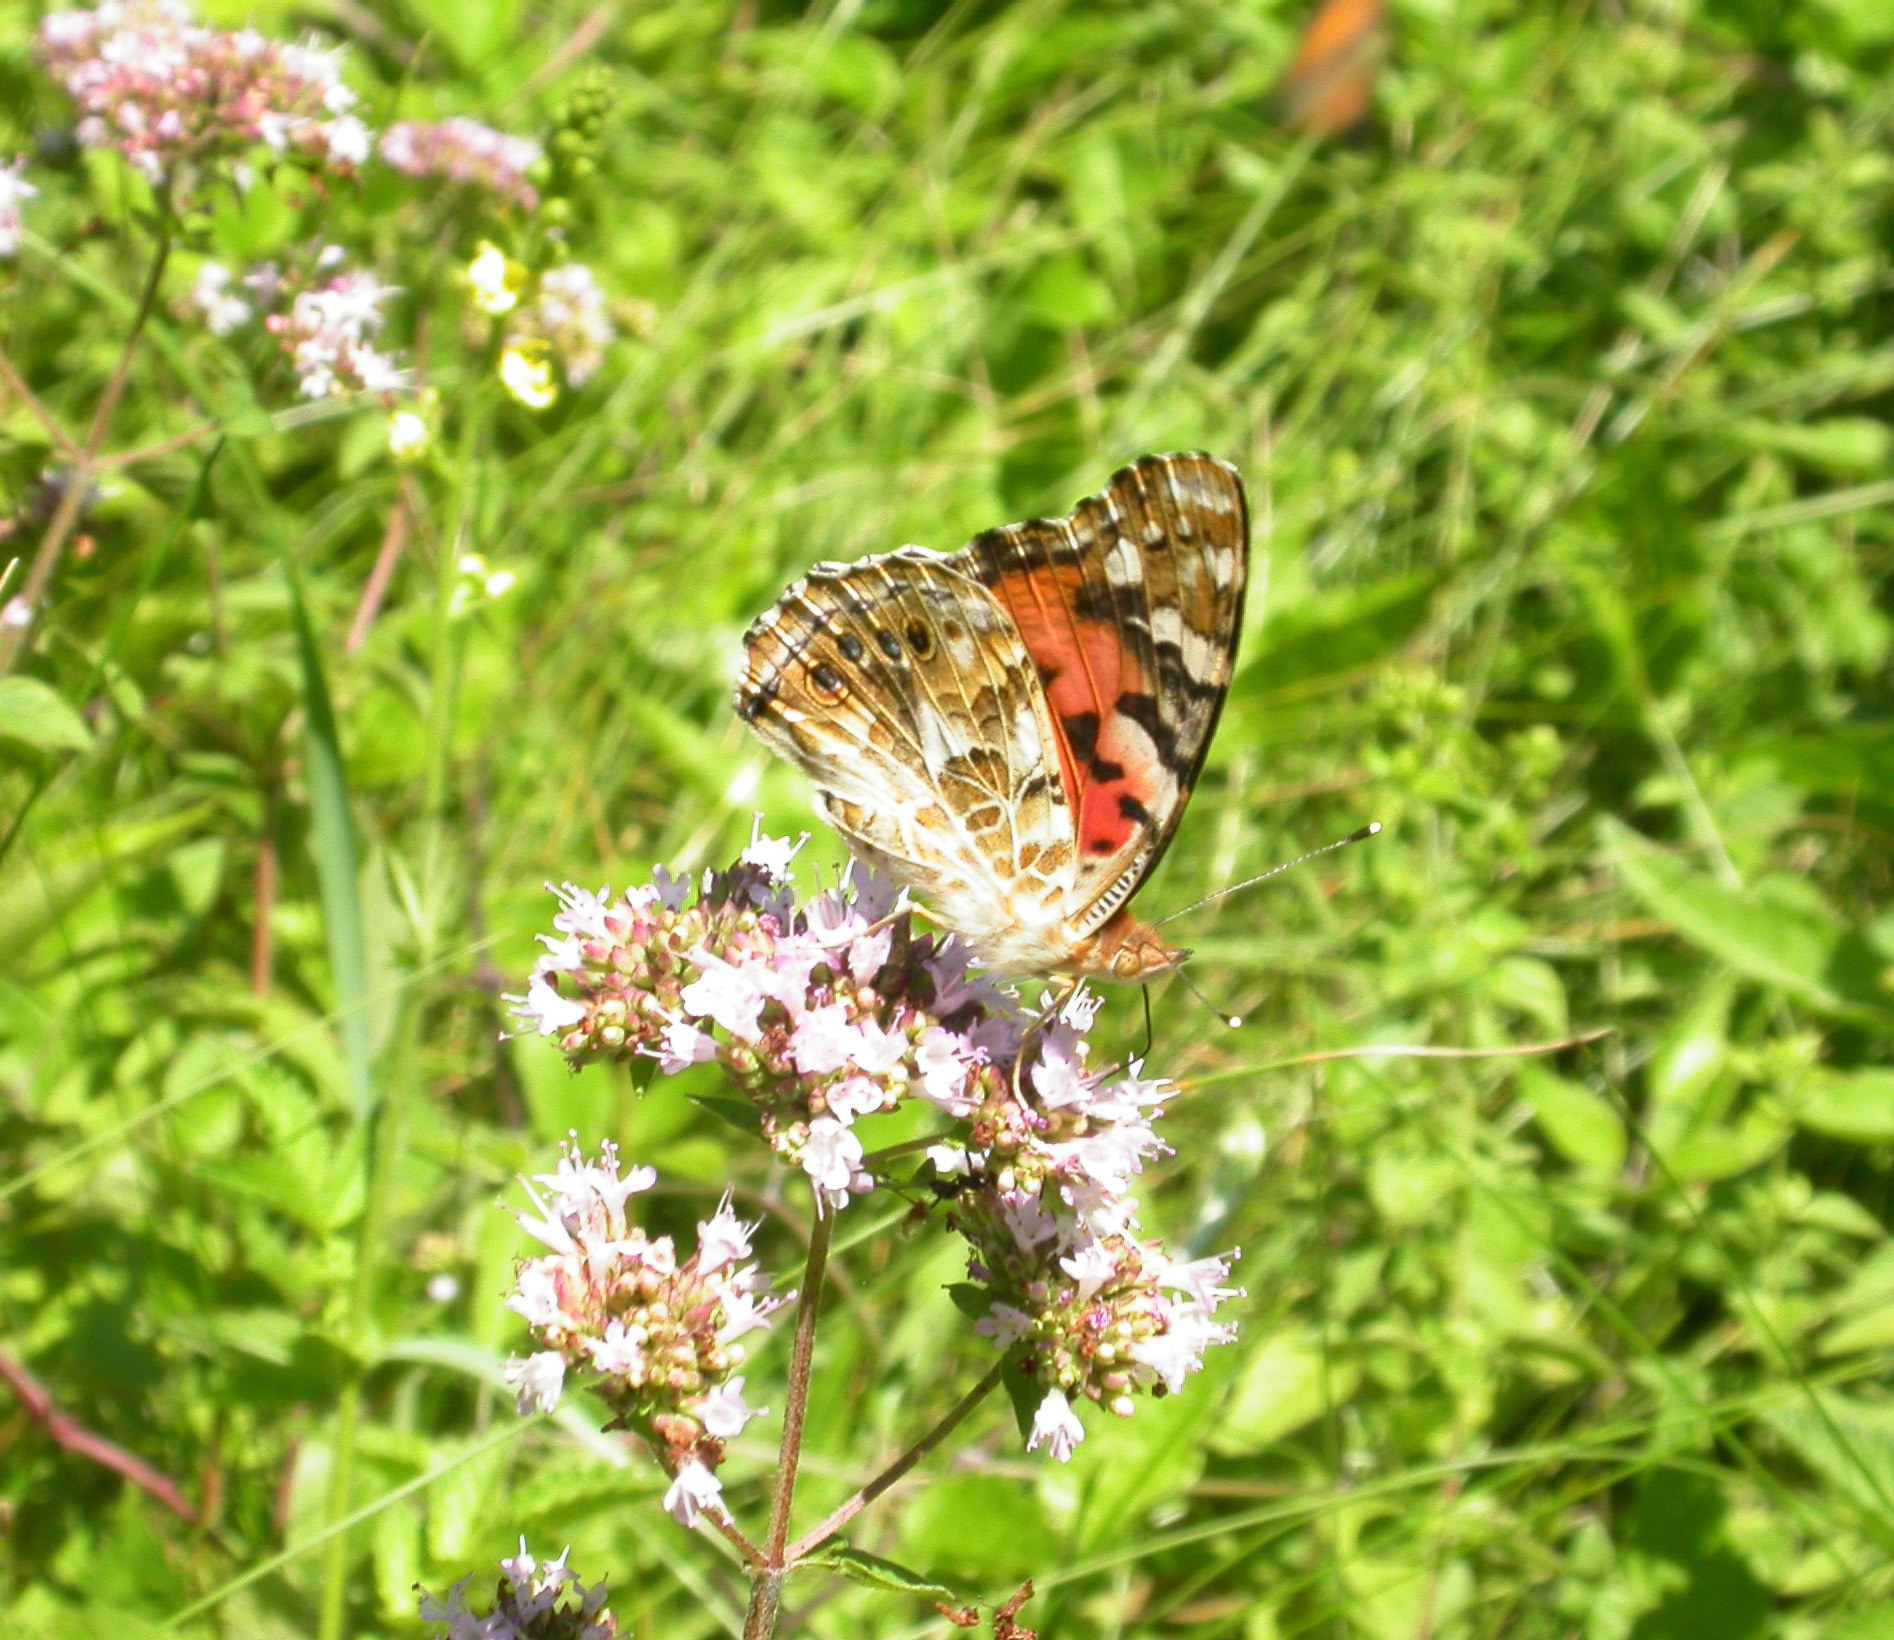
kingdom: Animalia
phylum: Arthropoda
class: Insecta
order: Lepidoptera
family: Nymphalidae
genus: Vanessa
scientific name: Vanessa cardui
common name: Painted lady
